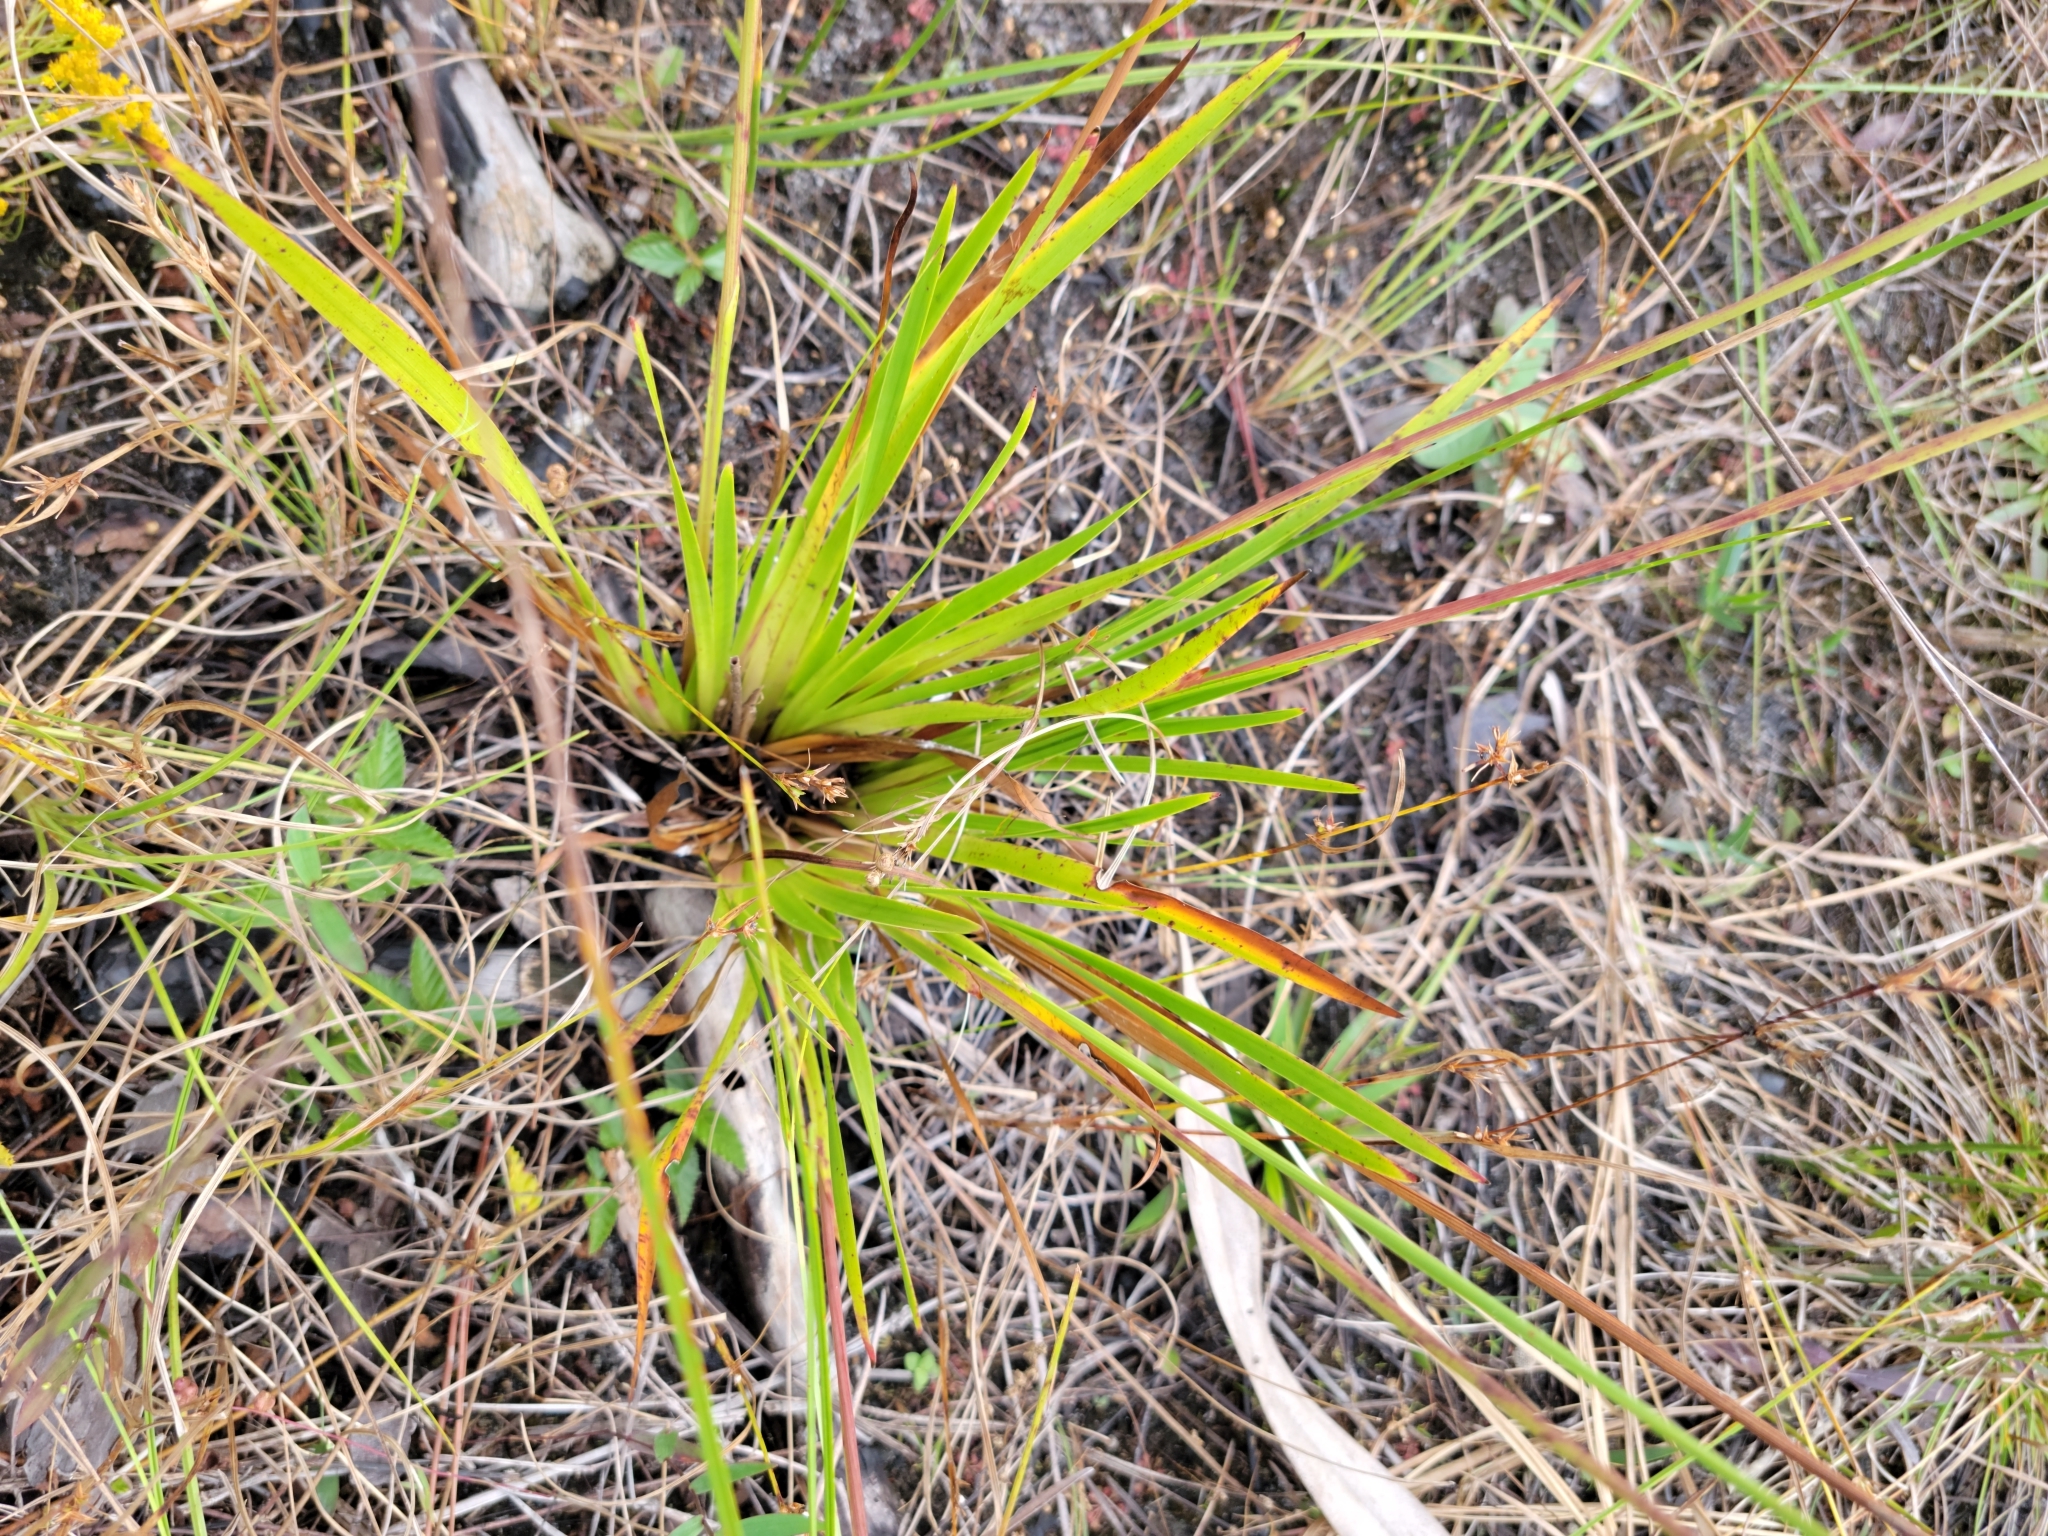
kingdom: Plantae
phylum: Tracheophyta
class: Liliopsida
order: Poales
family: Xyridaceae
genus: Xyris
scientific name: Xyris ambigua
